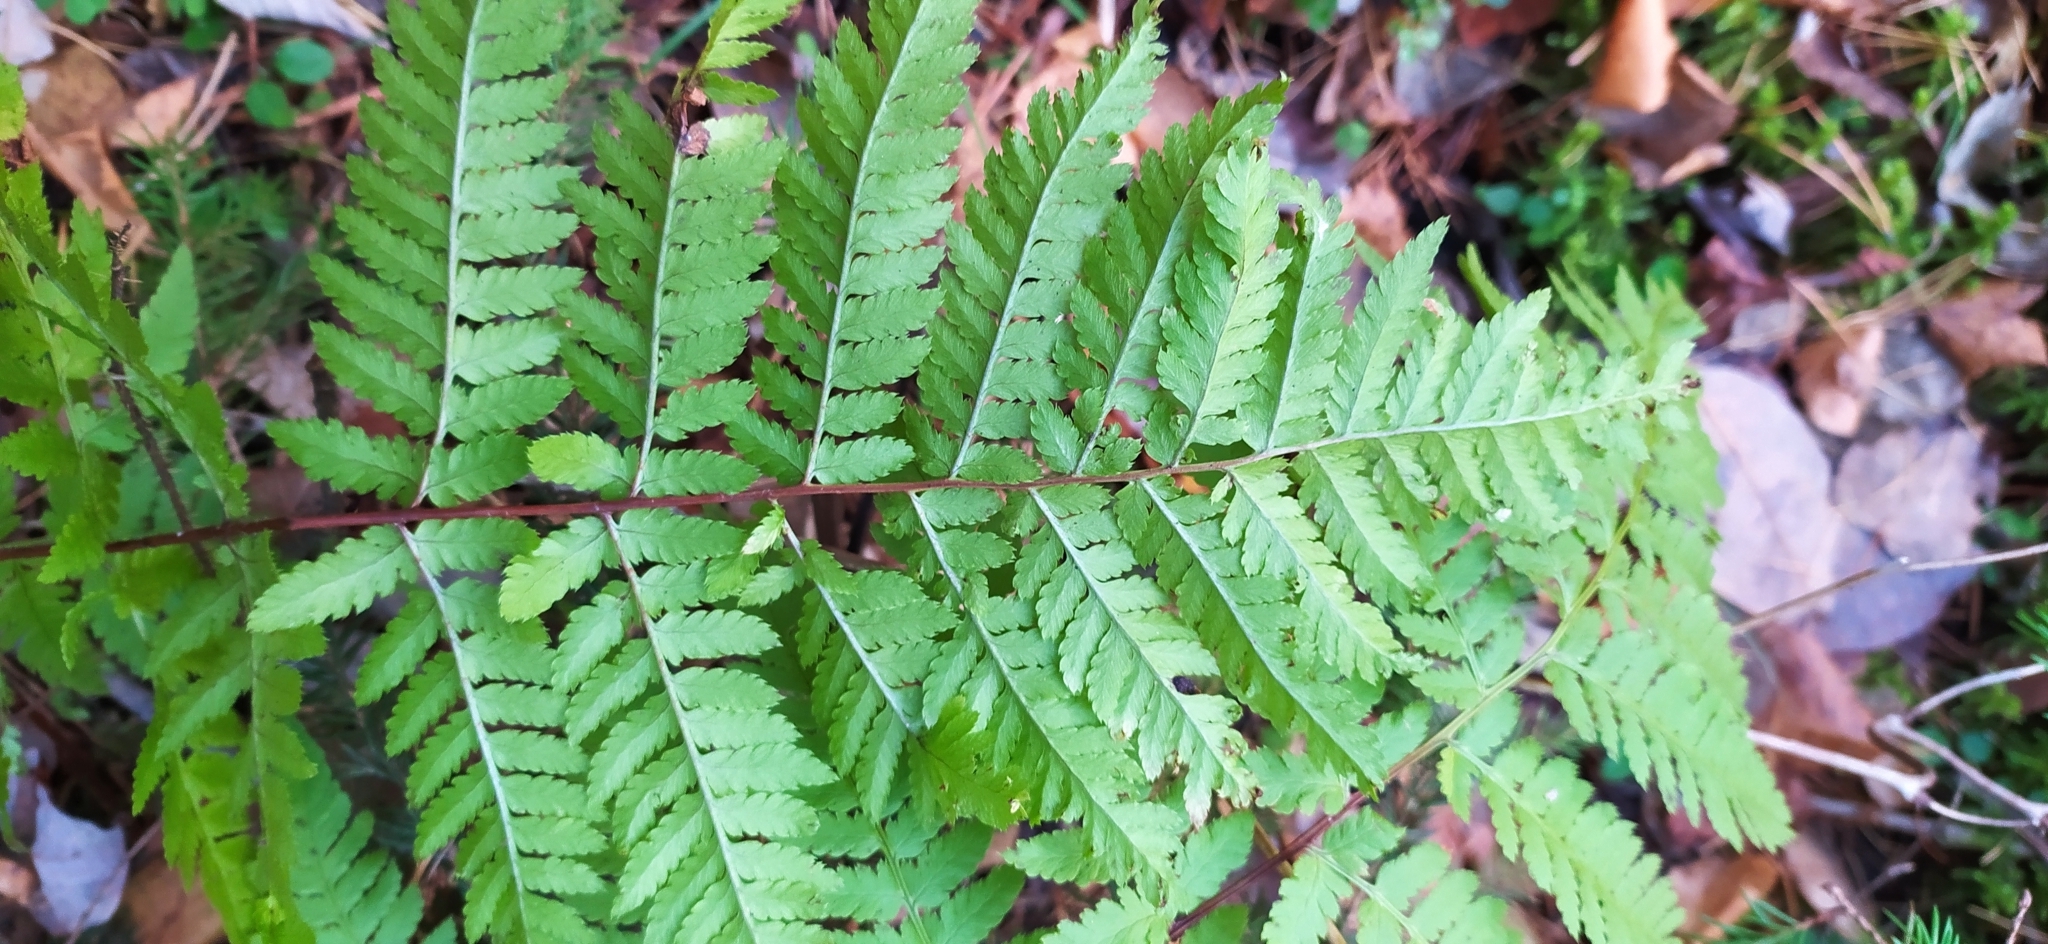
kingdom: Plantae
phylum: Tracheophyta
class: Polypodiopsida
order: Polypodiales
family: Dryopteridaceae
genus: Dryopteris
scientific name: Dryopteris carthusiana
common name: Narrow buckler-fern
